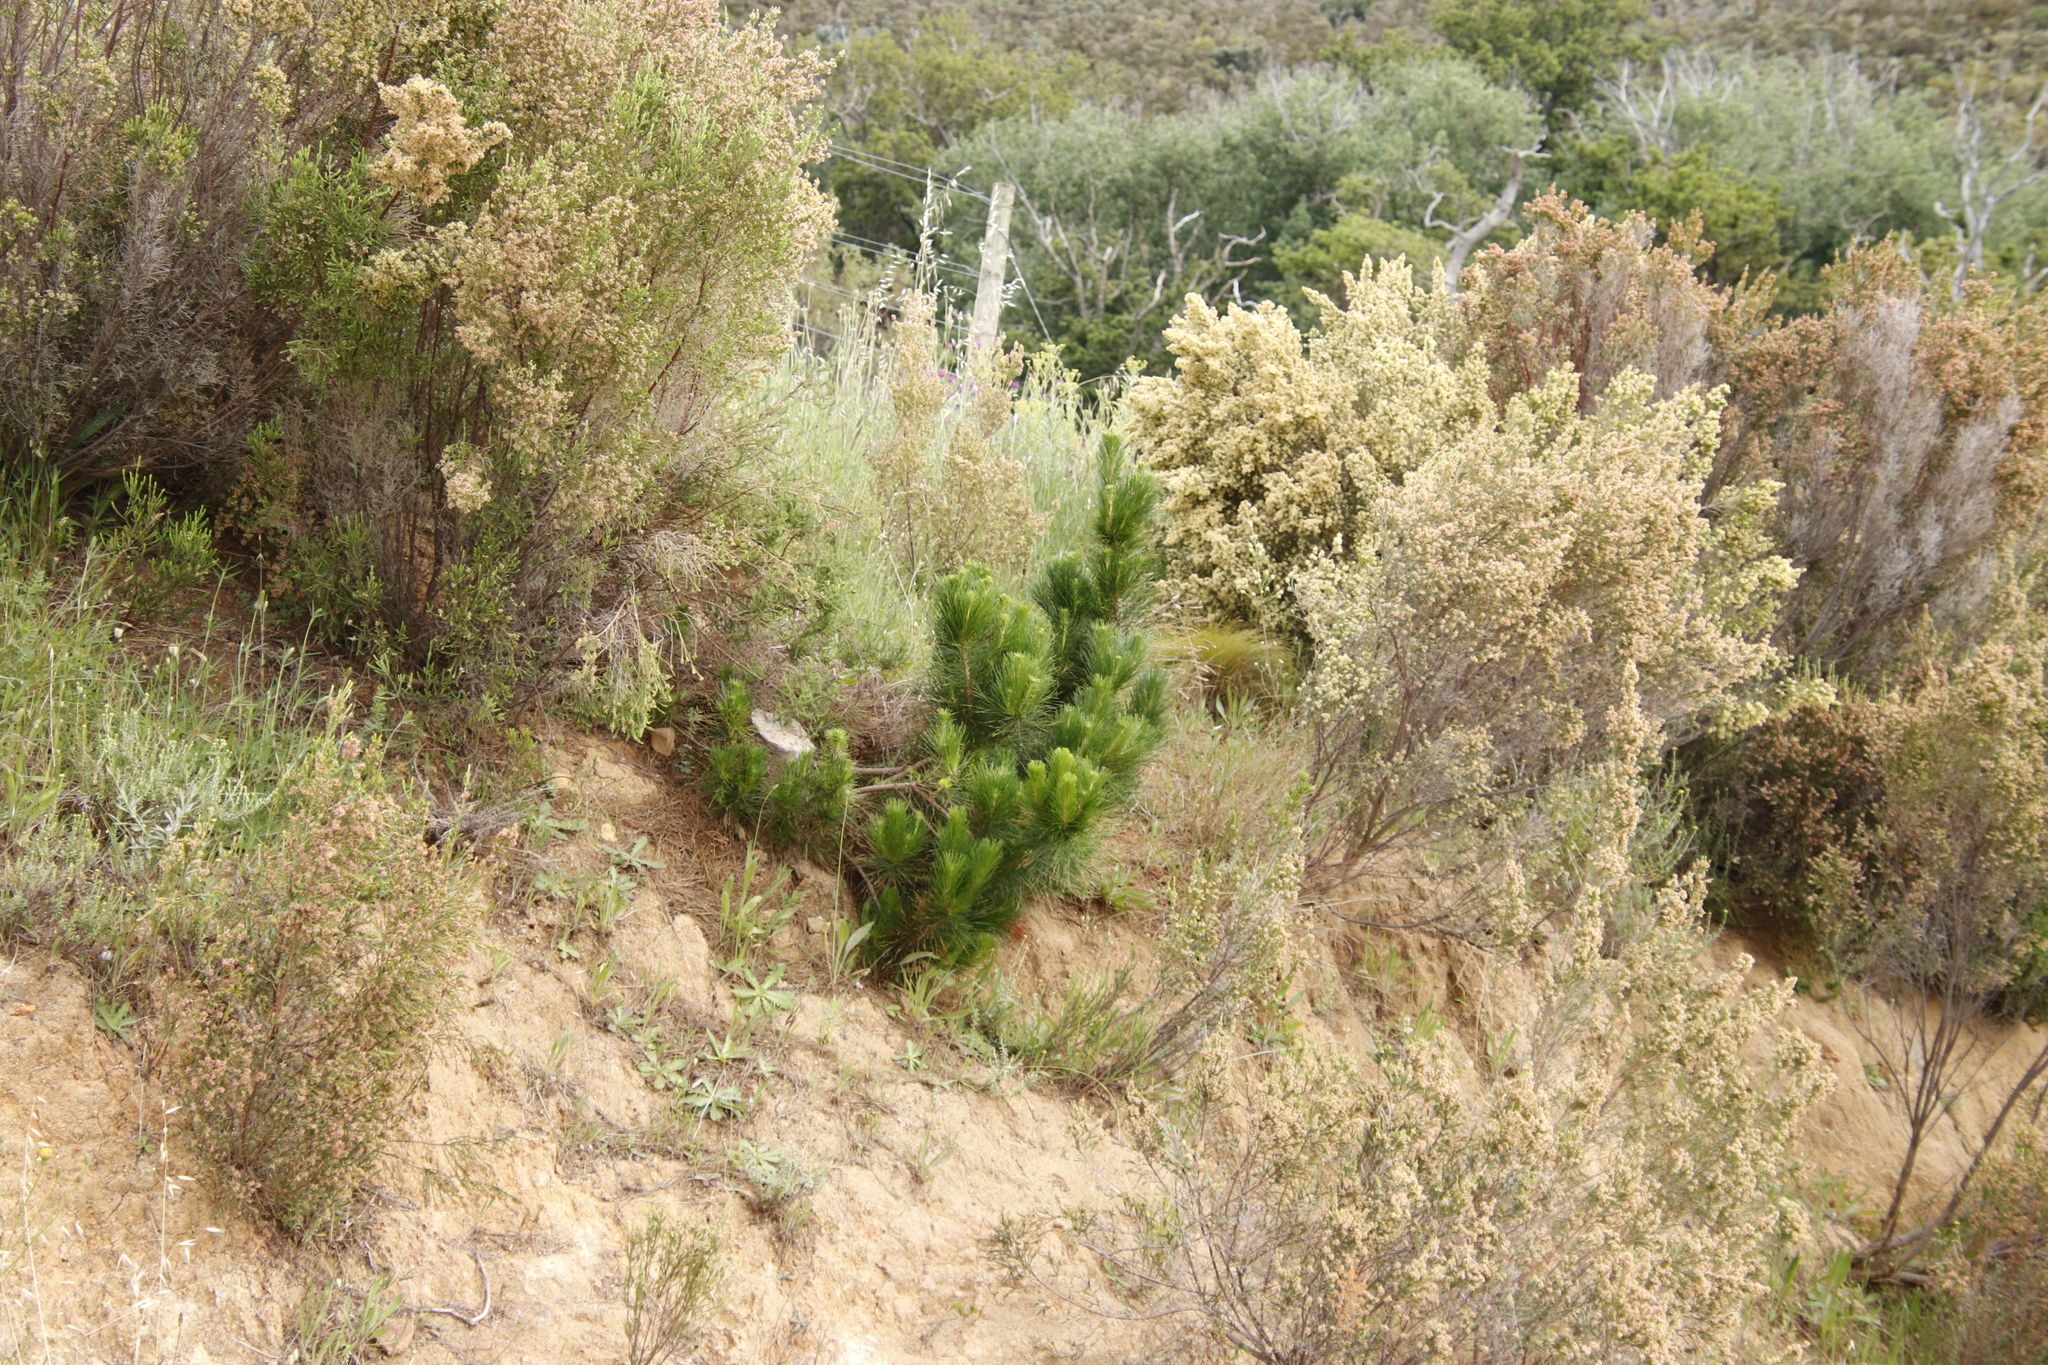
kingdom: Plantae
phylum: Tracheophyta
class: Pinopsida
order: Pinales
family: Pinaceae
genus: Pinus
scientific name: Pinus radiata
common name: Monterey pine
